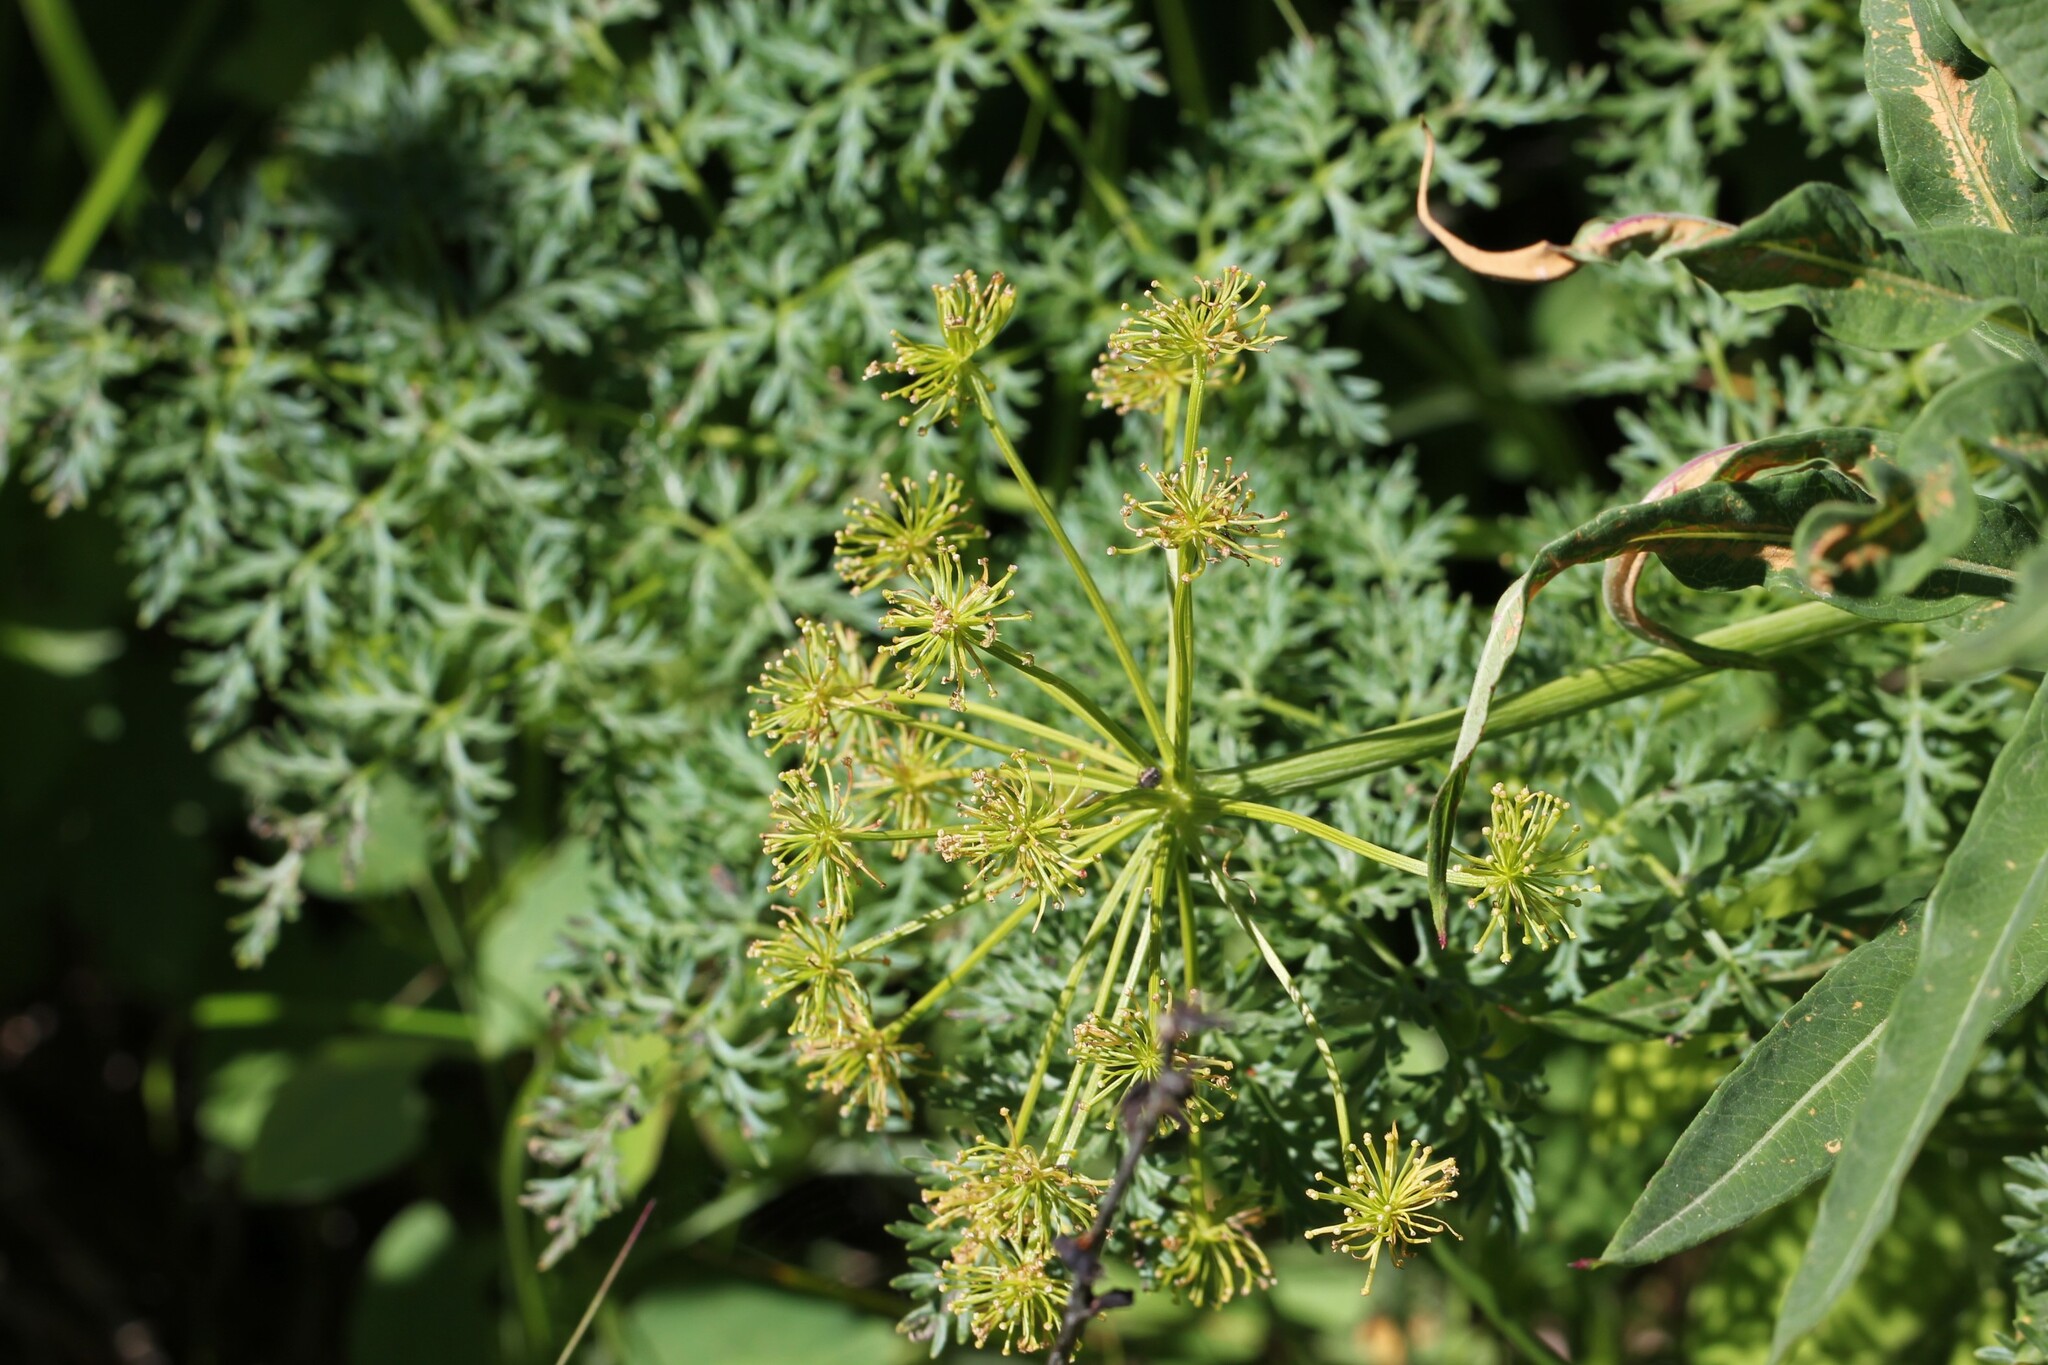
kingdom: Plantae
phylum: Tracheophyta
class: Magnoliopsida
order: Apiales
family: Apiaceae
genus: Lomatium
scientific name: Lomatium multifidum
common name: Carrot-leaved biscuitroot
